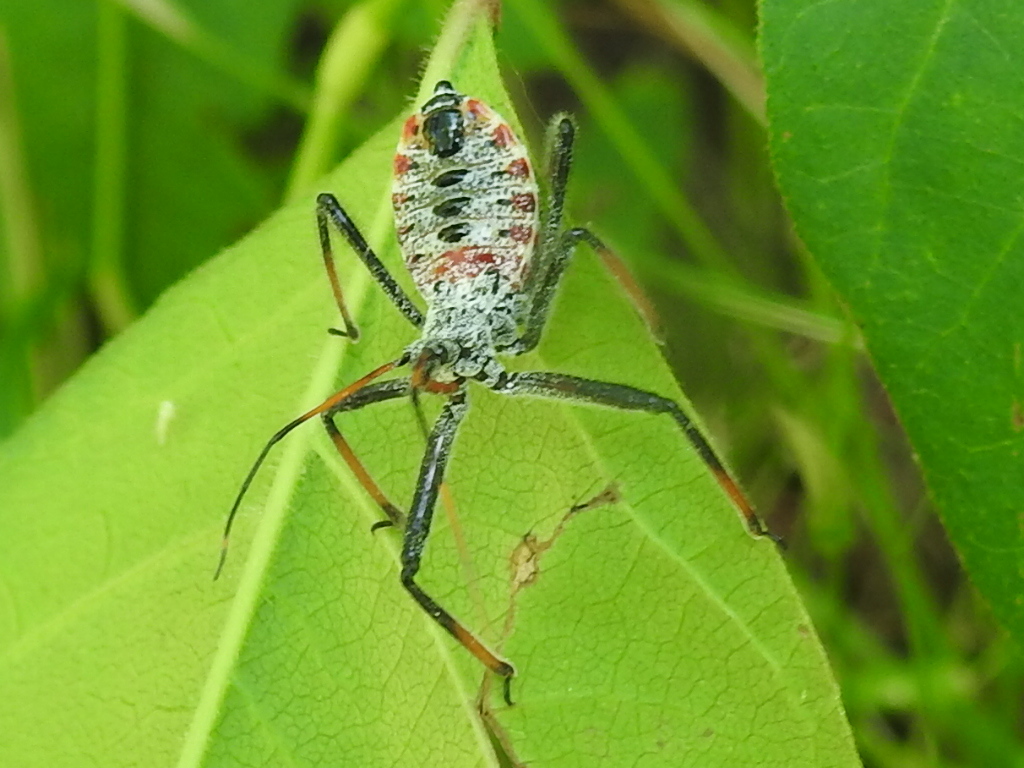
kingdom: Animalia
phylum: Arthropoda
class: Insecta
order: Hemiptera
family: Reduviidae
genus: Arilus
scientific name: Arilus cristatus
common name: North american wheel bug
